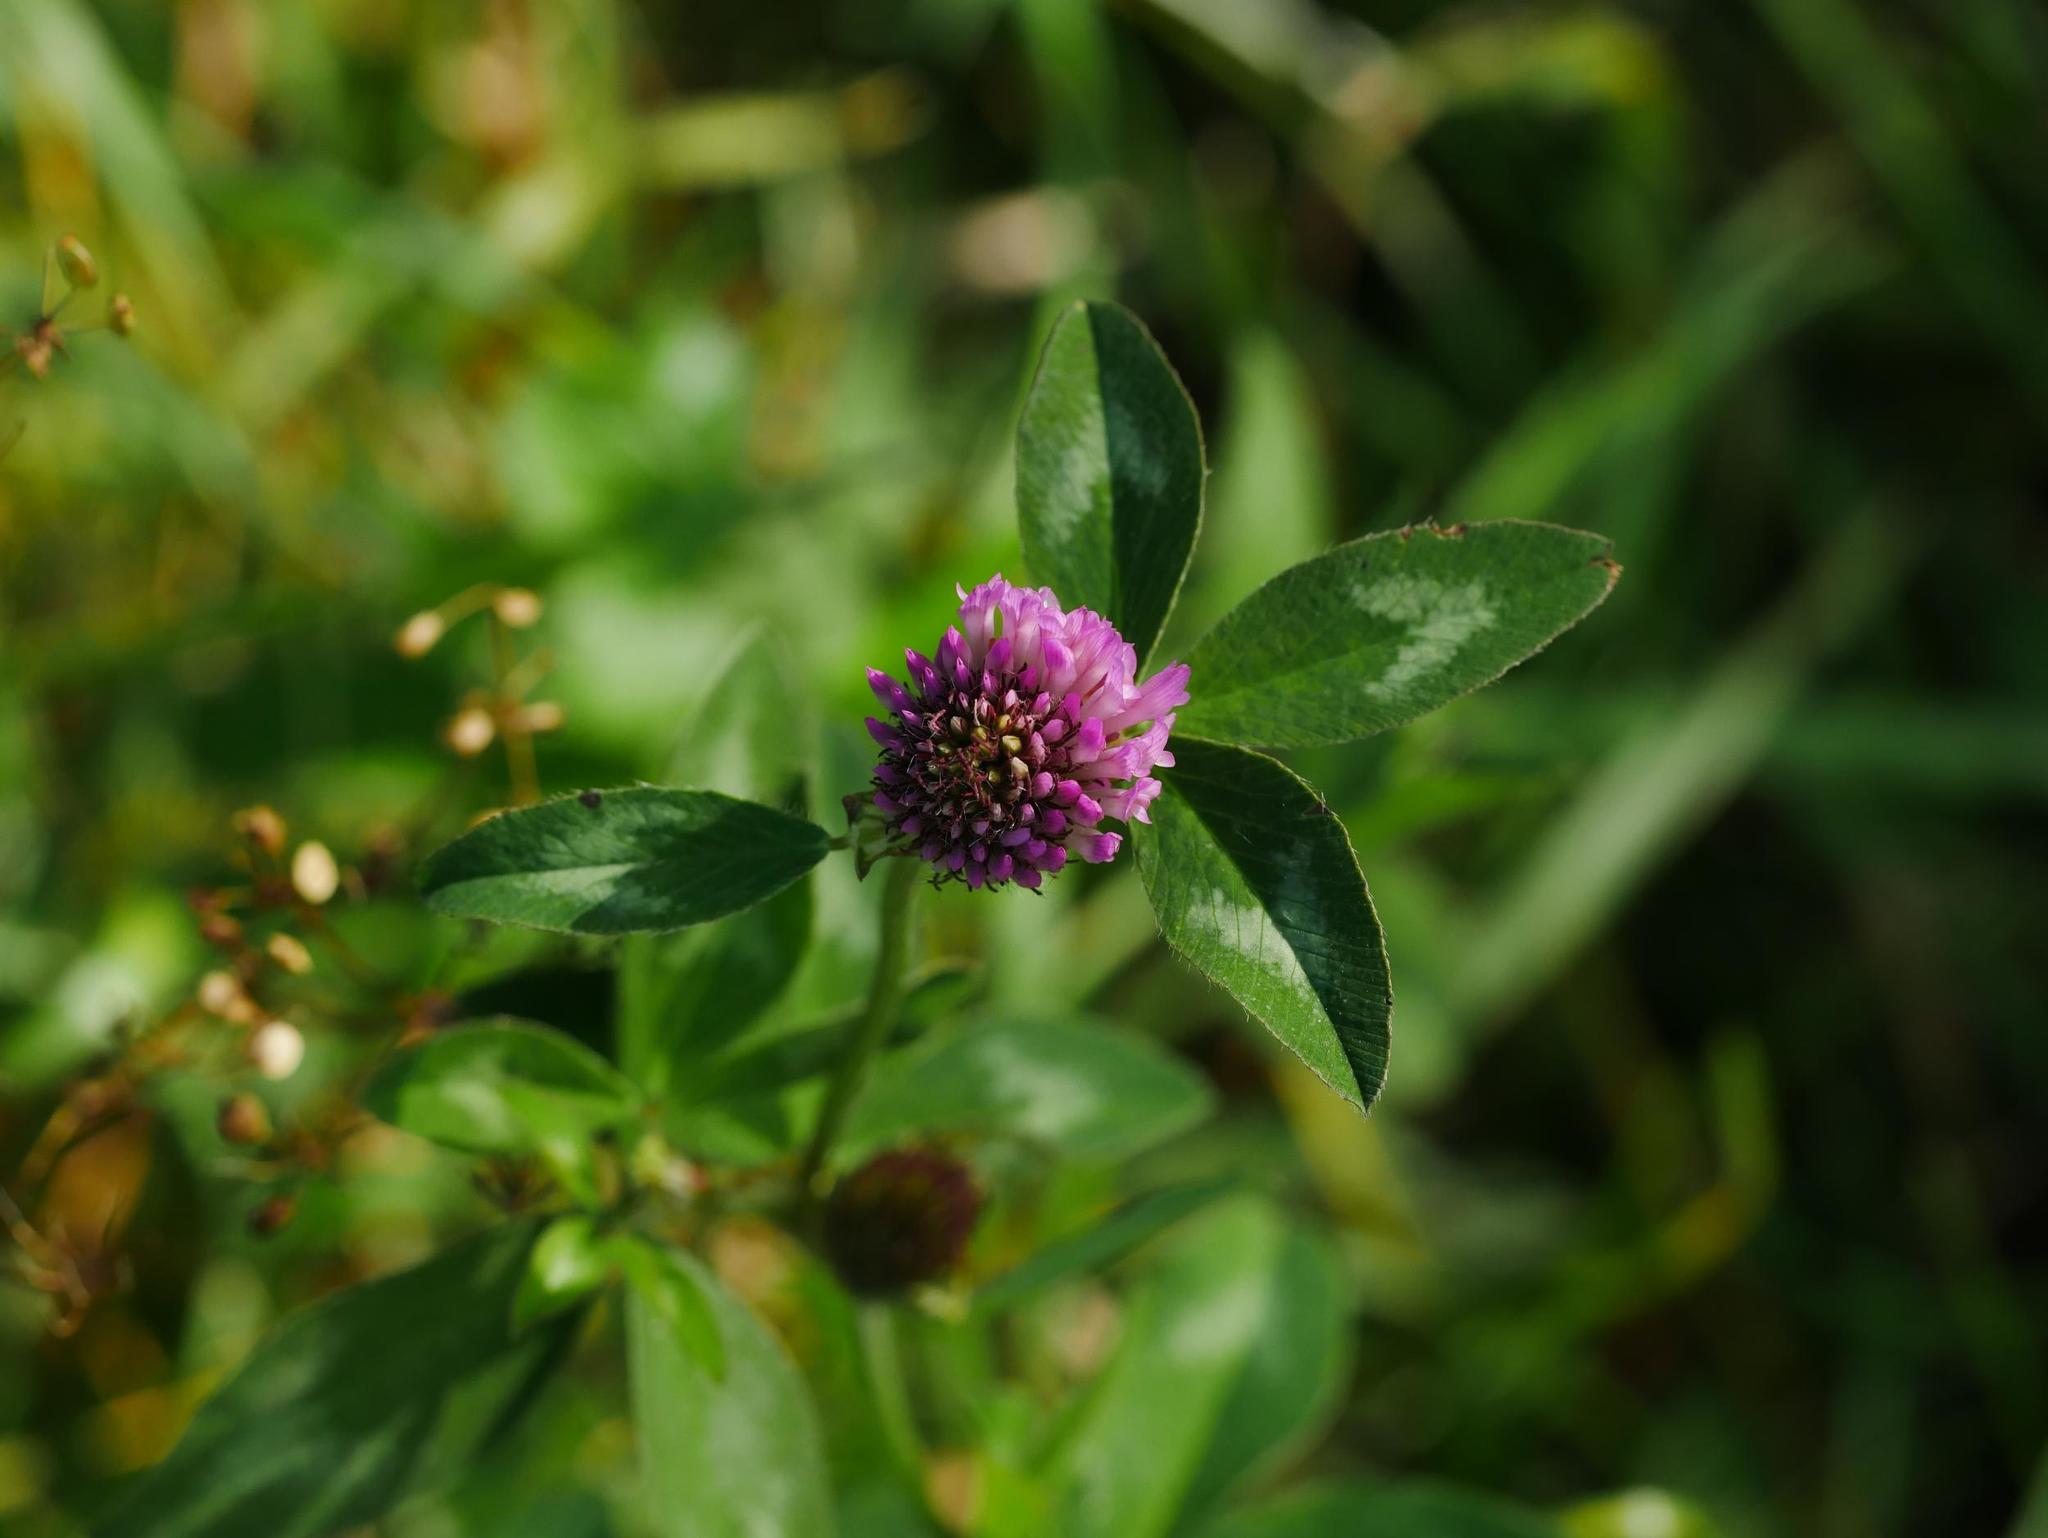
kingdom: Plantae
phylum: Tracheophyta
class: Magnoliopsida
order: Fabales
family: Fabaceae
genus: Trifolium
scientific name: Trifolium pratense
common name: Red clover
